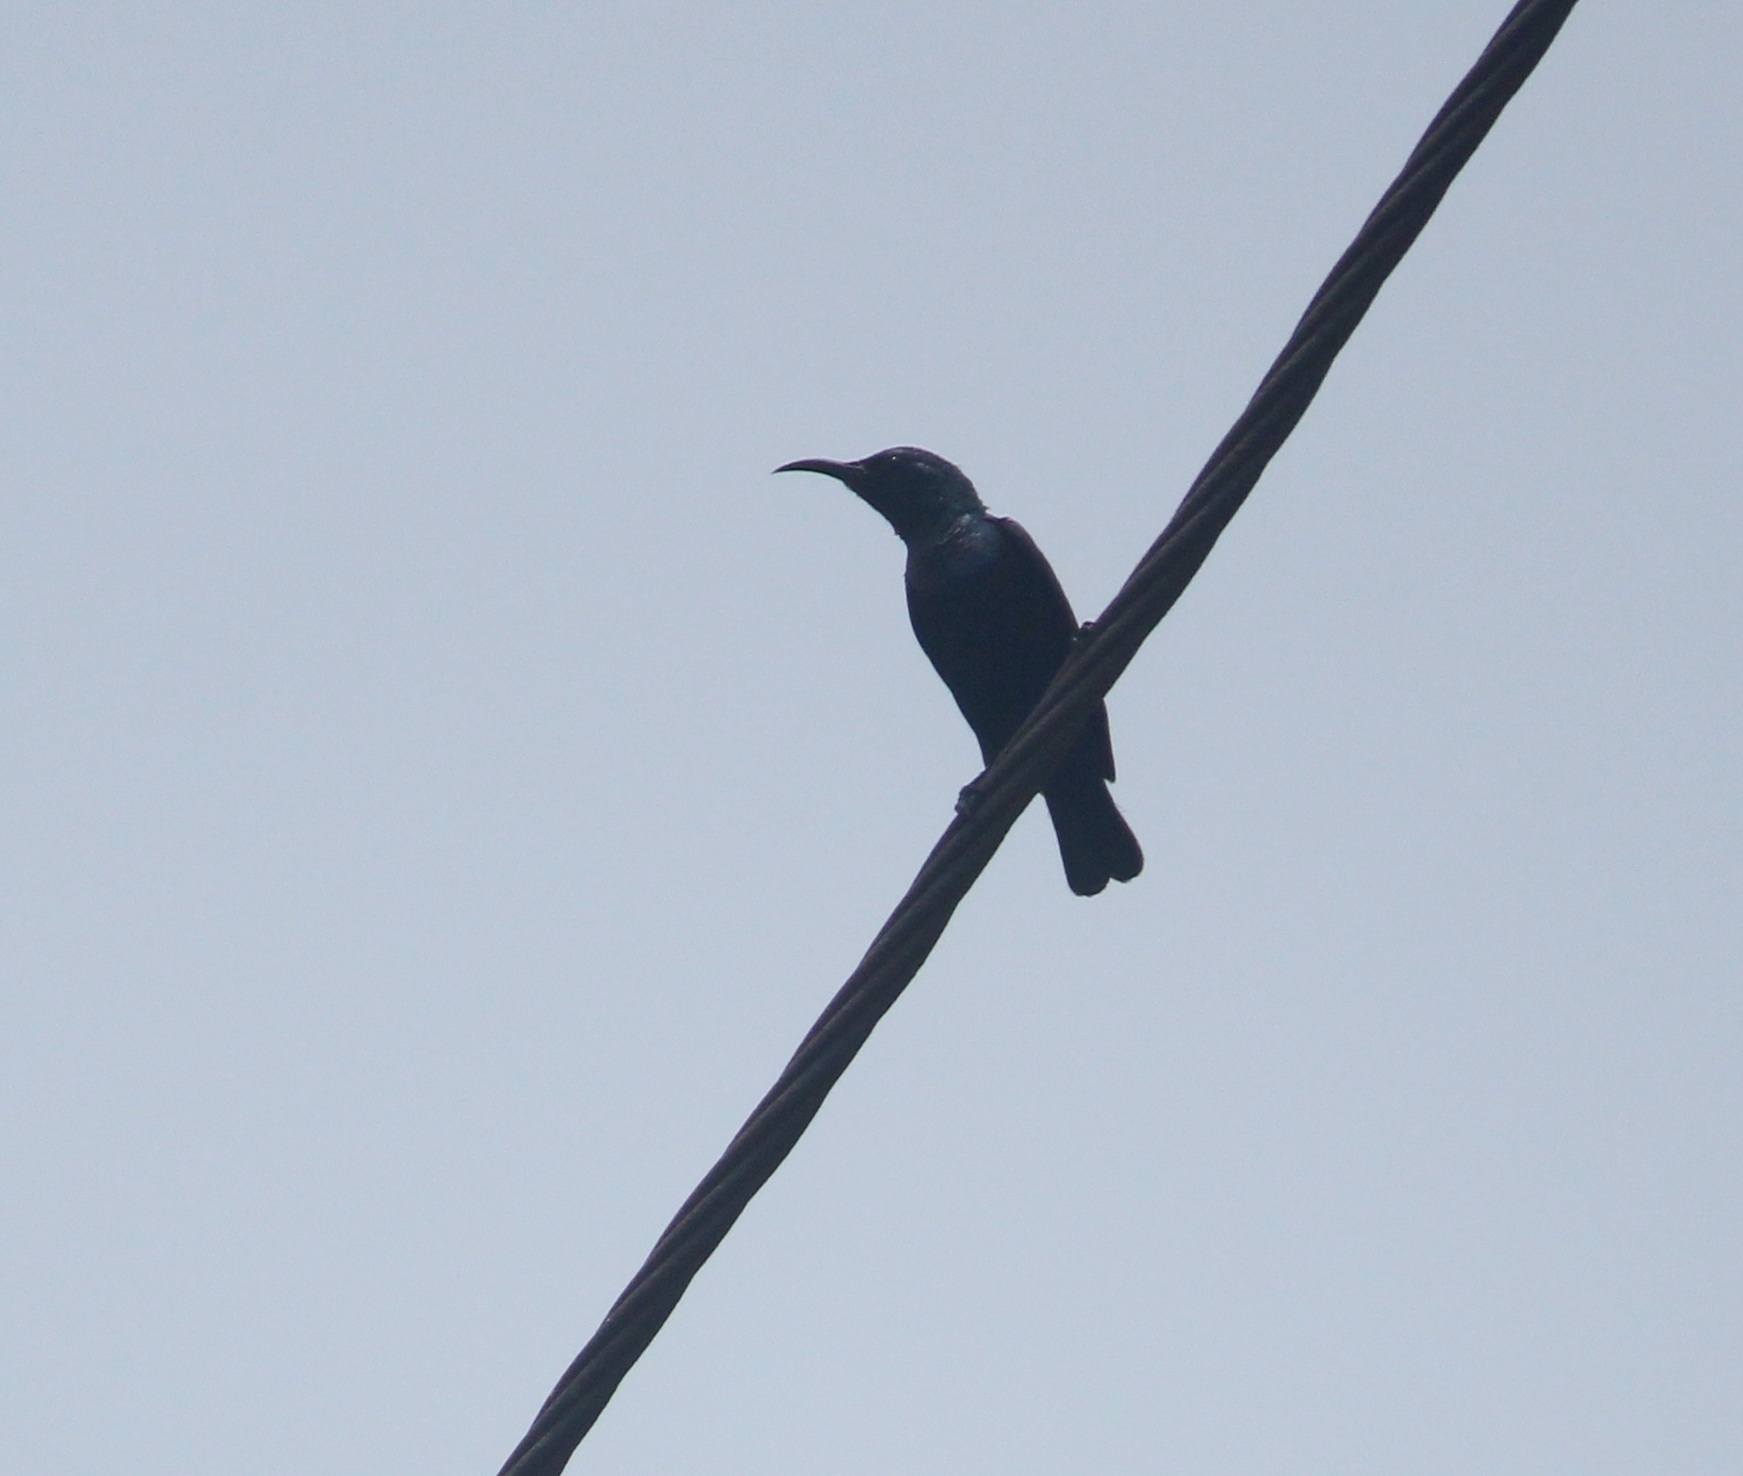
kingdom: Animalia
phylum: Chordata
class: Aves
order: Passeriformes
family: Nectariniidae
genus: Cinnyris
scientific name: Cinnyris asiaticus
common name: Purple sunbird
